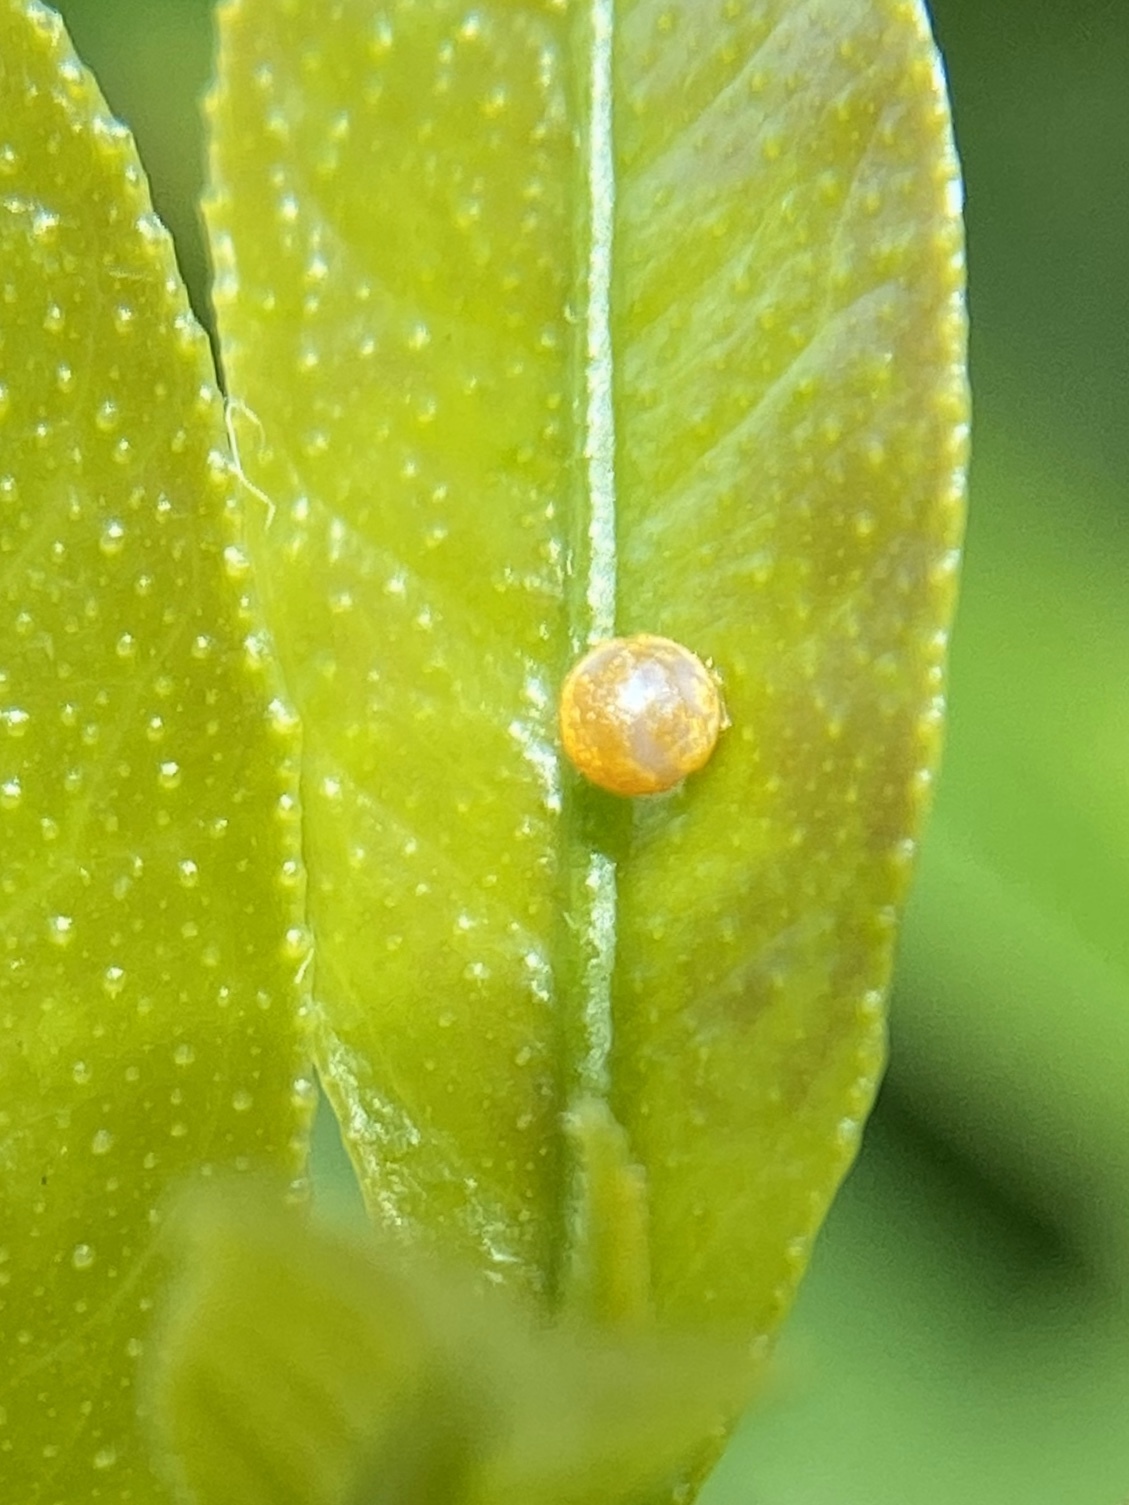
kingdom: Animalia
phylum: Arthropoda
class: Insecta
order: Lepidoptera
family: Papilionidae
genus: Papilio
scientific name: Papilio cresphontes
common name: Giant swallowtail
